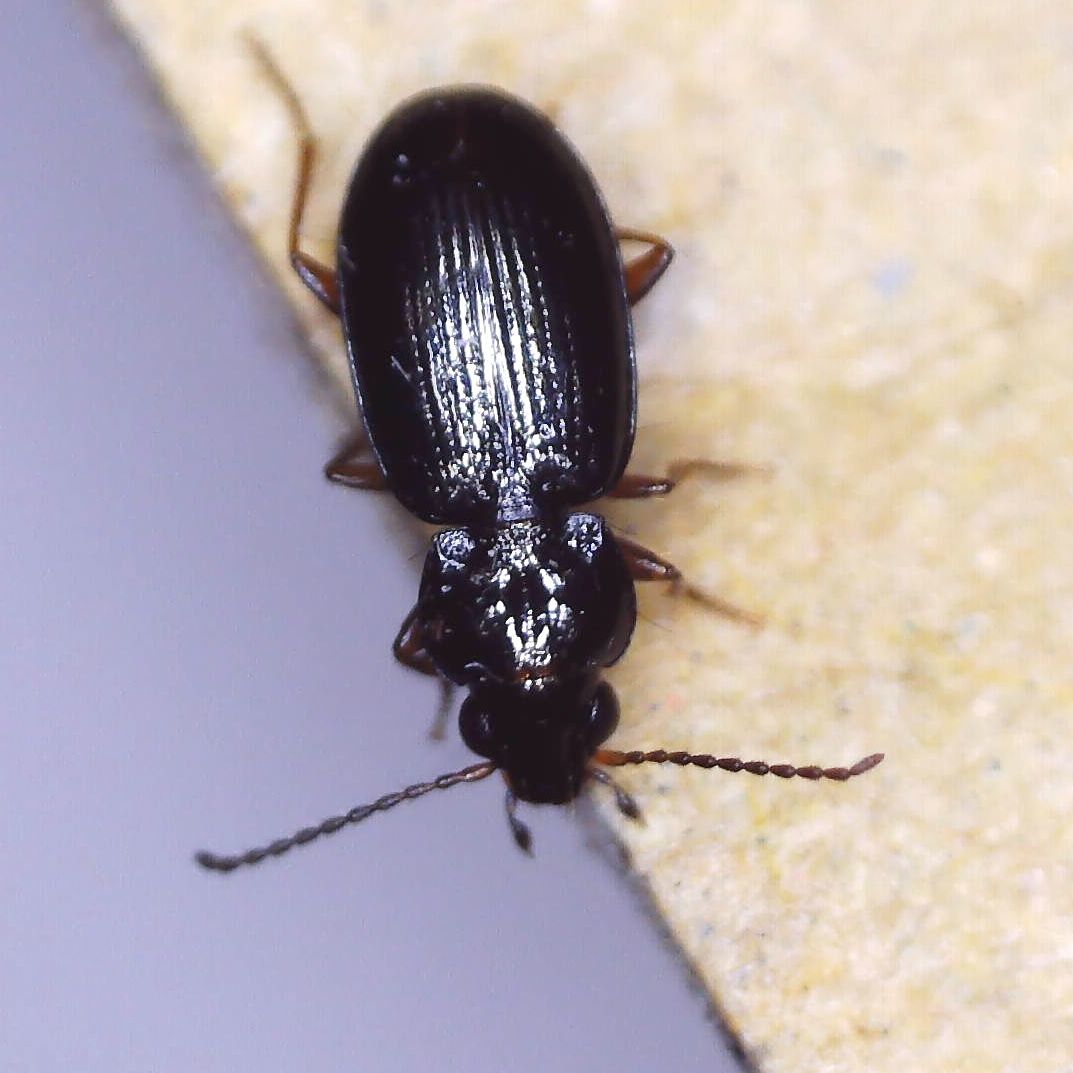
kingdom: Animalia
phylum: Arthropoda
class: Insecta
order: Coleoptera
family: Carabidae
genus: Bembidion
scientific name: Bembidion obtusum
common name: Paris riverbank ground beetle
